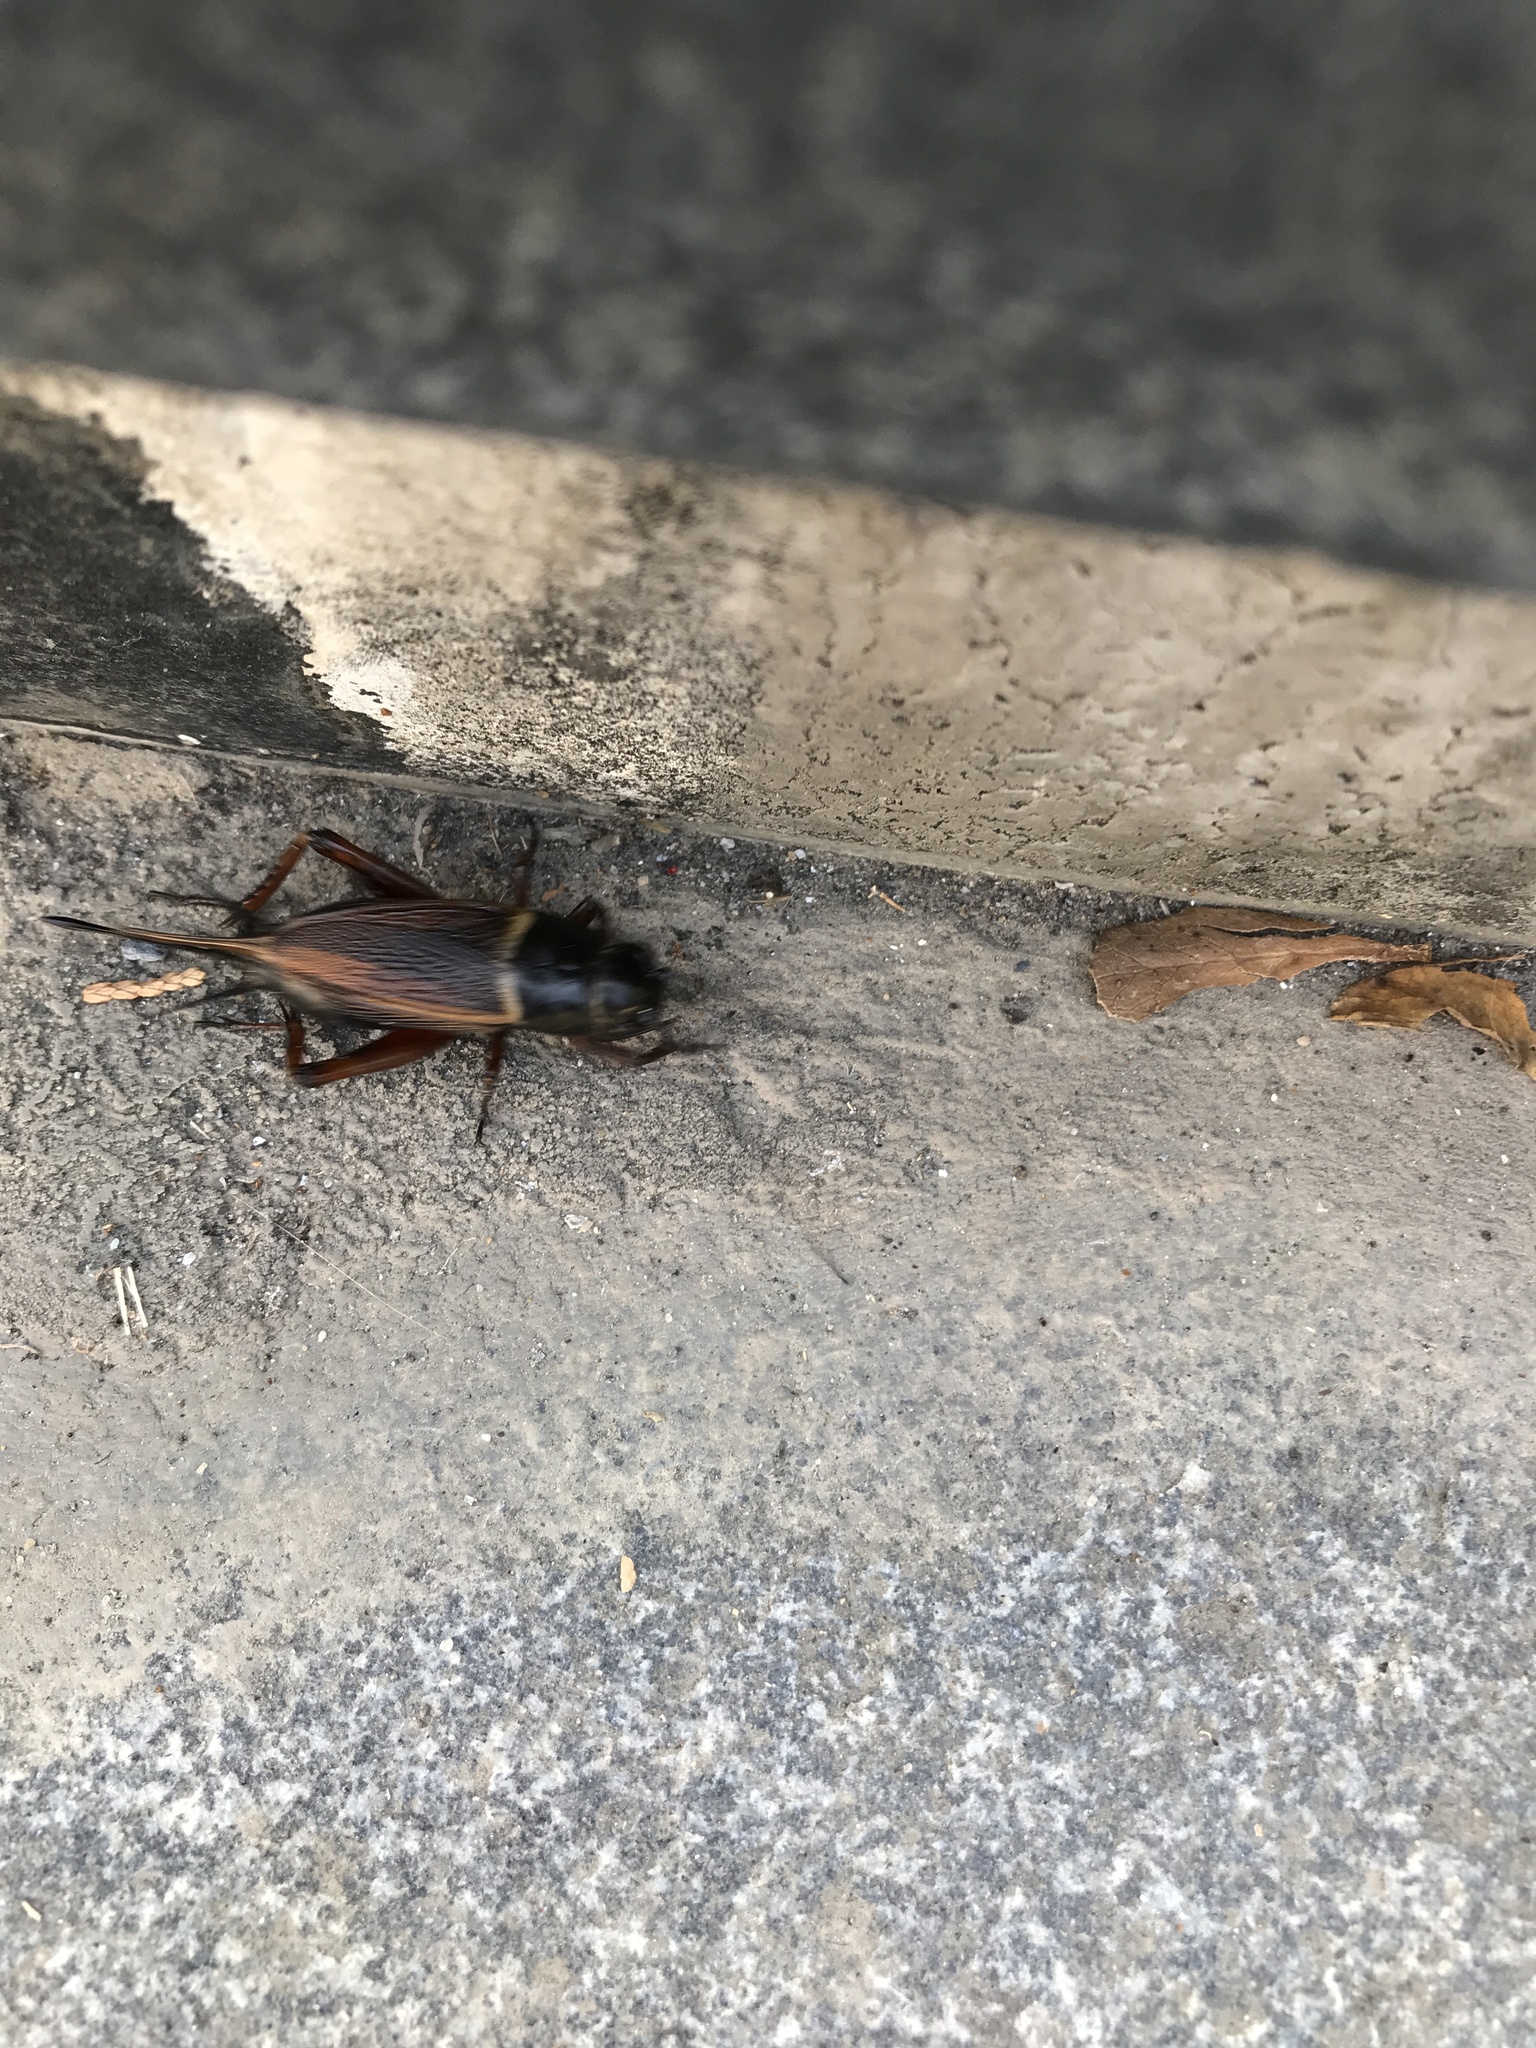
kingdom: Animalia
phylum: Arthropoda
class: Insecta
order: Orthoptera
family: Gryllidae
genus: Gryllus
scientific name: Gryllus bimaculatus
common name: Two-spotted cricket
